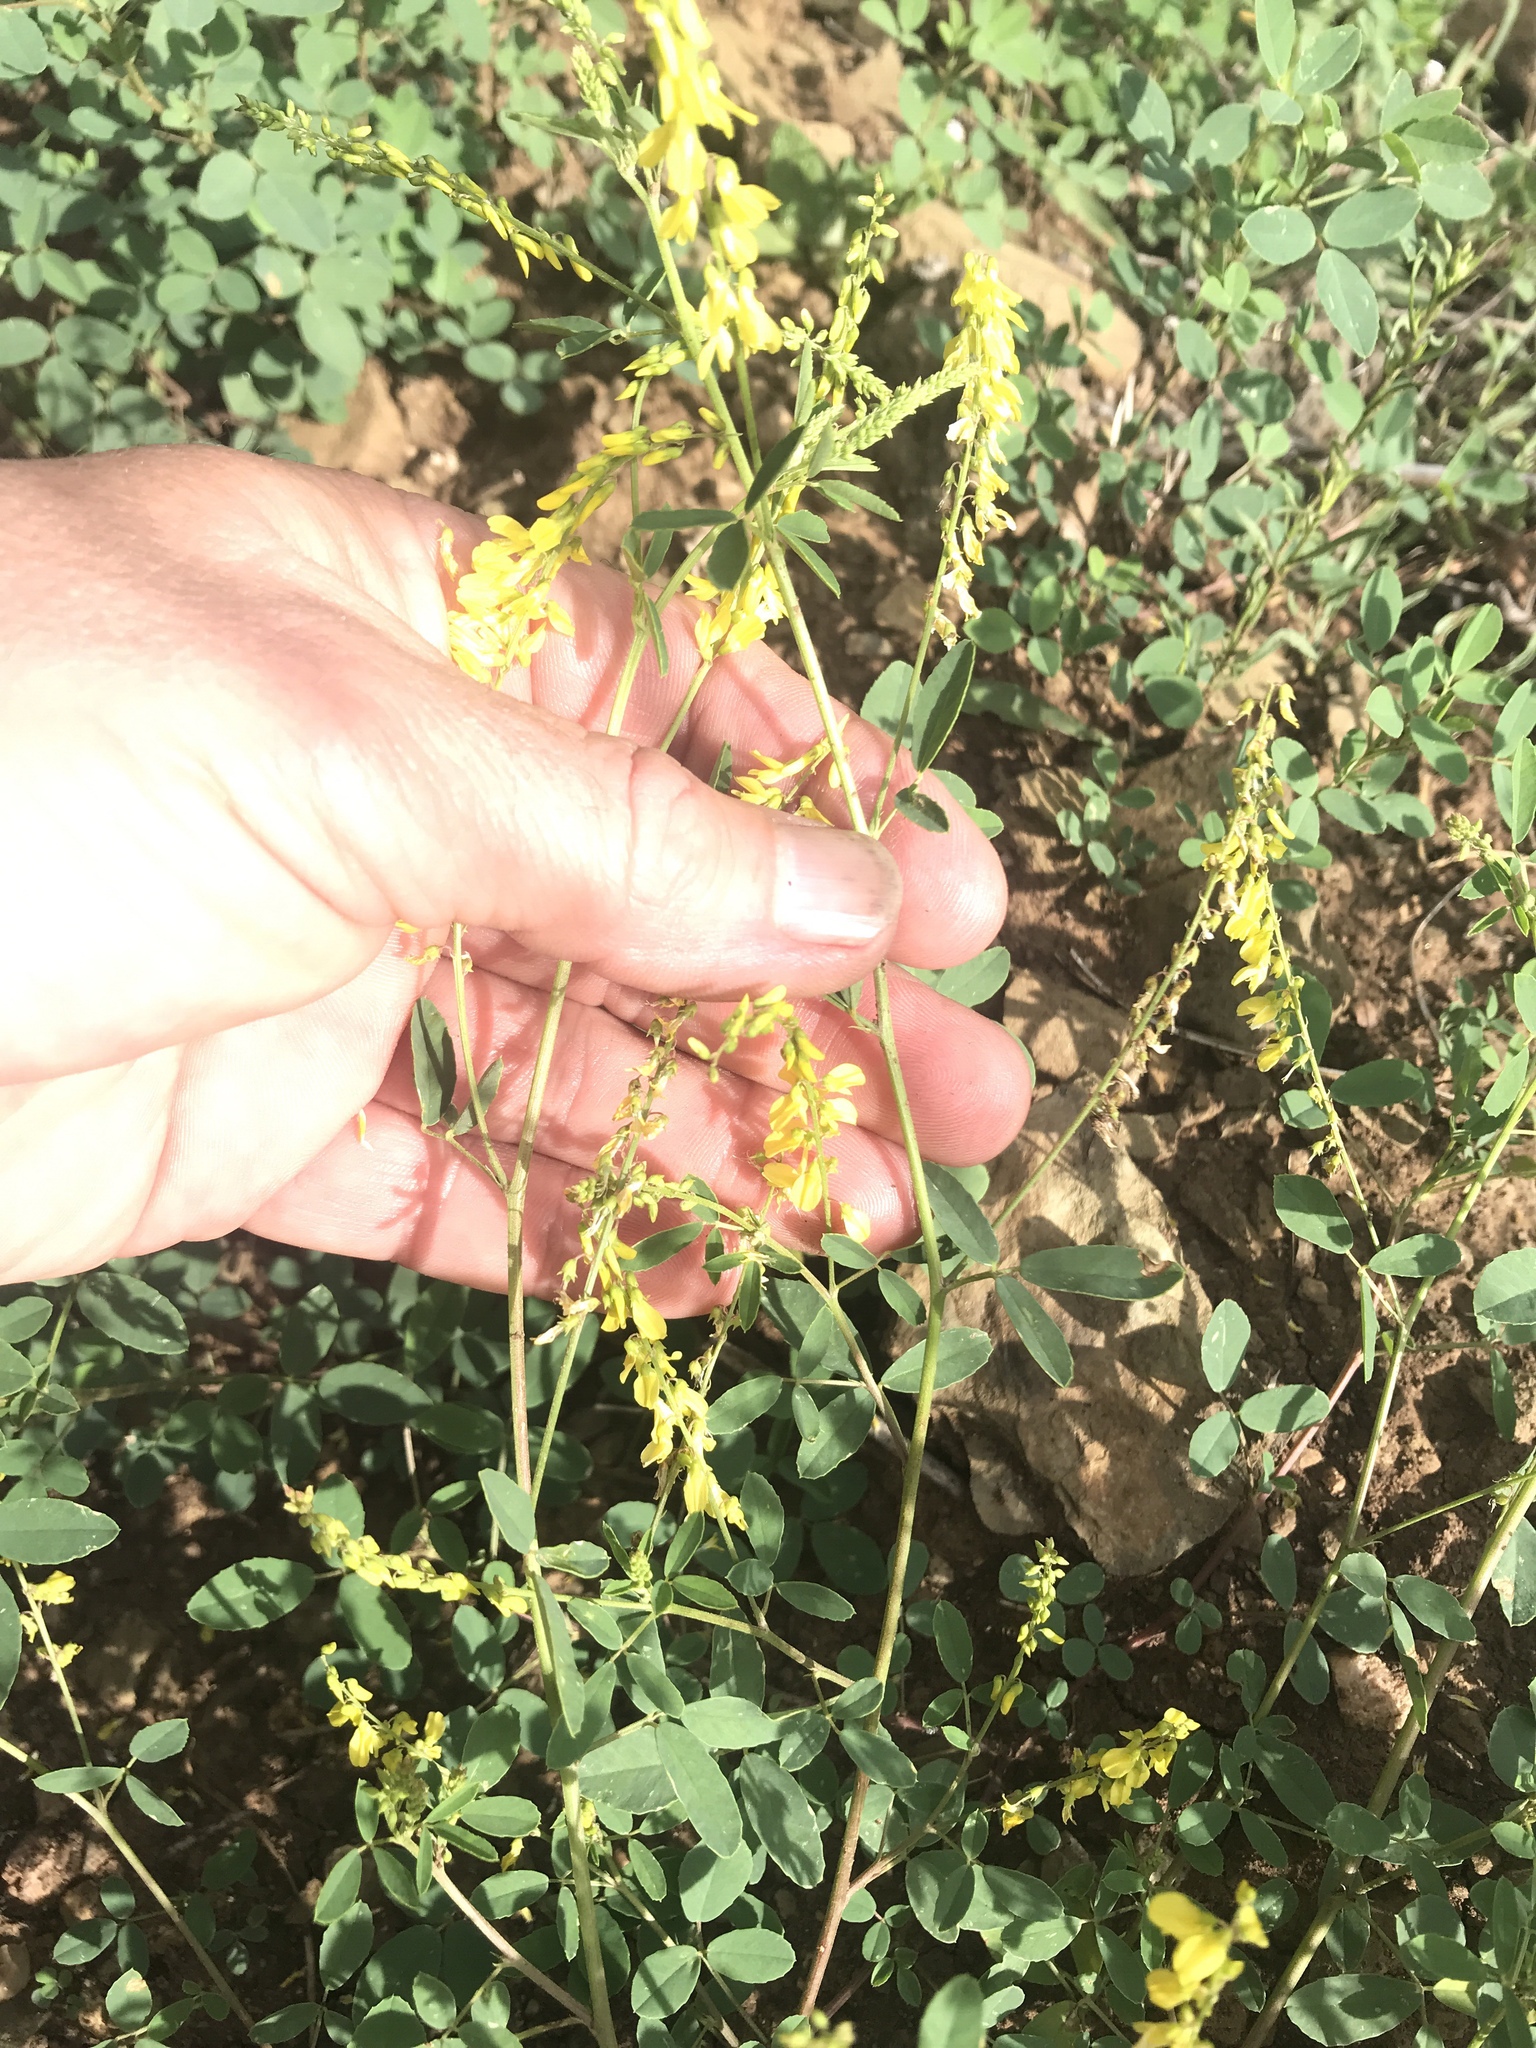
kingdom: Plantae
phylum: Tracheophyta
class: Magnoliopsida
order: Fabales
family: Fabaceae
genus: Melilotus
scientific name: Melilotus officinalis
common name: Sweetclover
